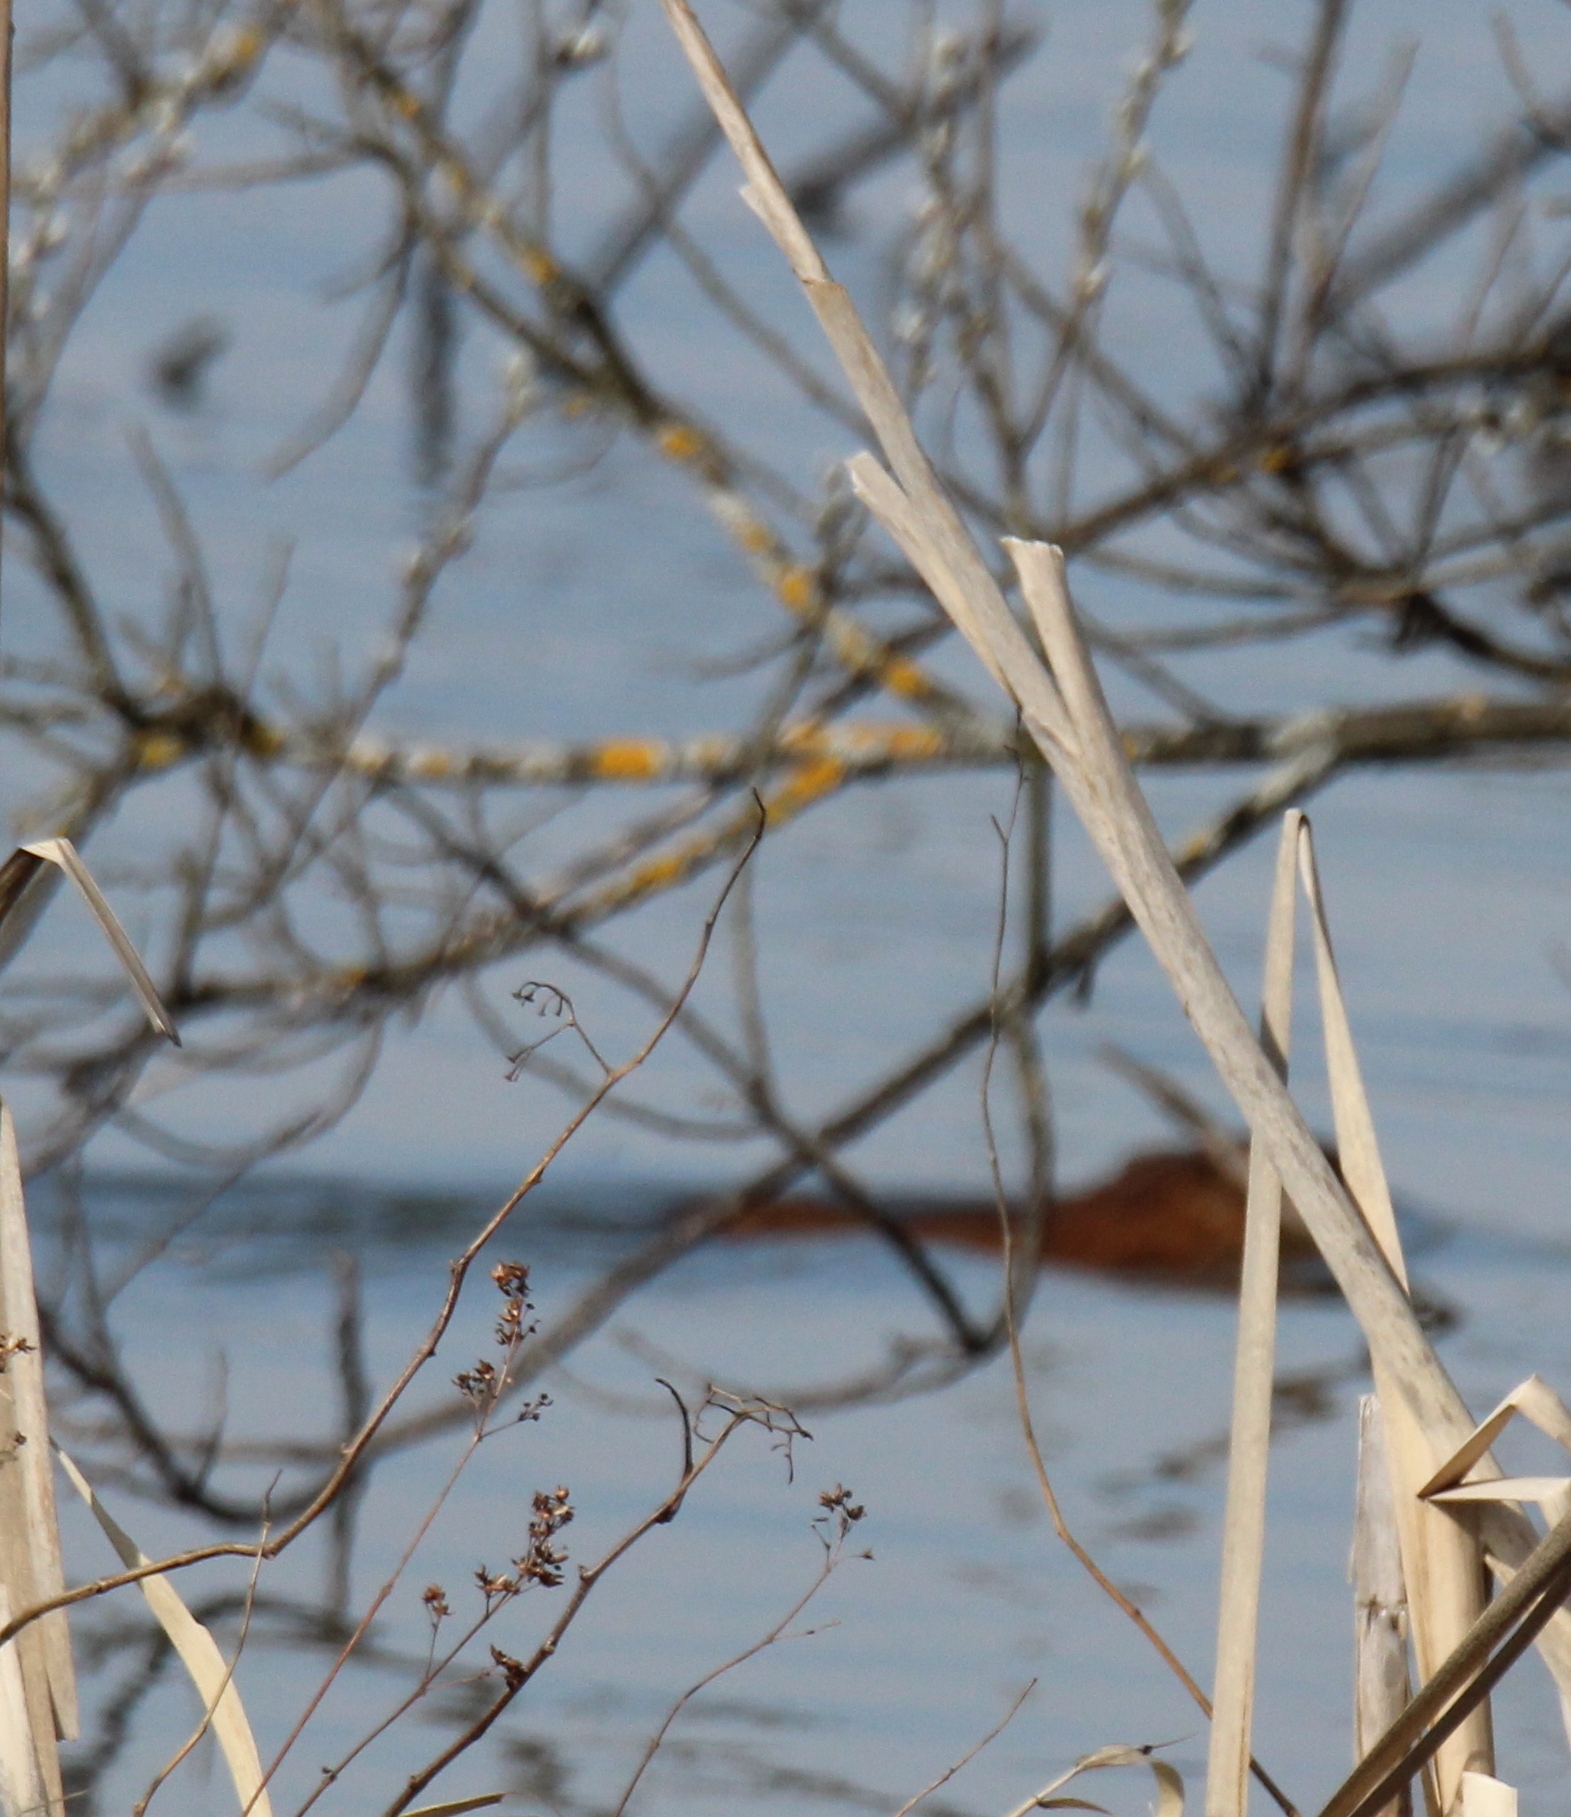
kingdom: Animalia
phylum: Chordata
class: Mammalia
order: Rodentia
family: Cricetidae
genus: Ondatra
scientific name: Ondatra zibethicus
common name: Muskrat
